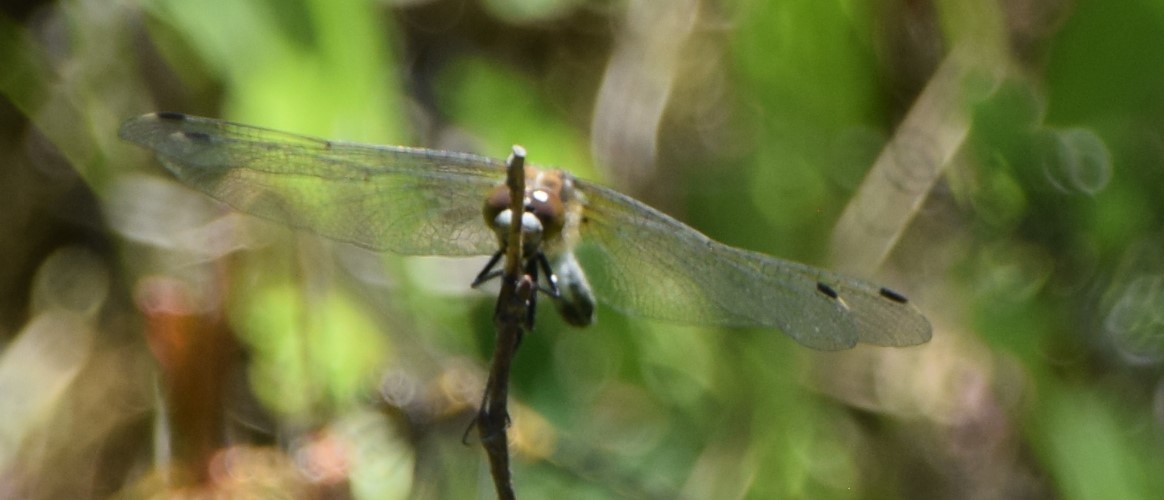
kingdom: Animalia
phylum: Arthropoda
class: Insecta
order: Odonata
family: Libellulidae
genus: Leucorrhinia
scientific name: Leucorrhinia intacta
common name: Dot-tailed whiteface
